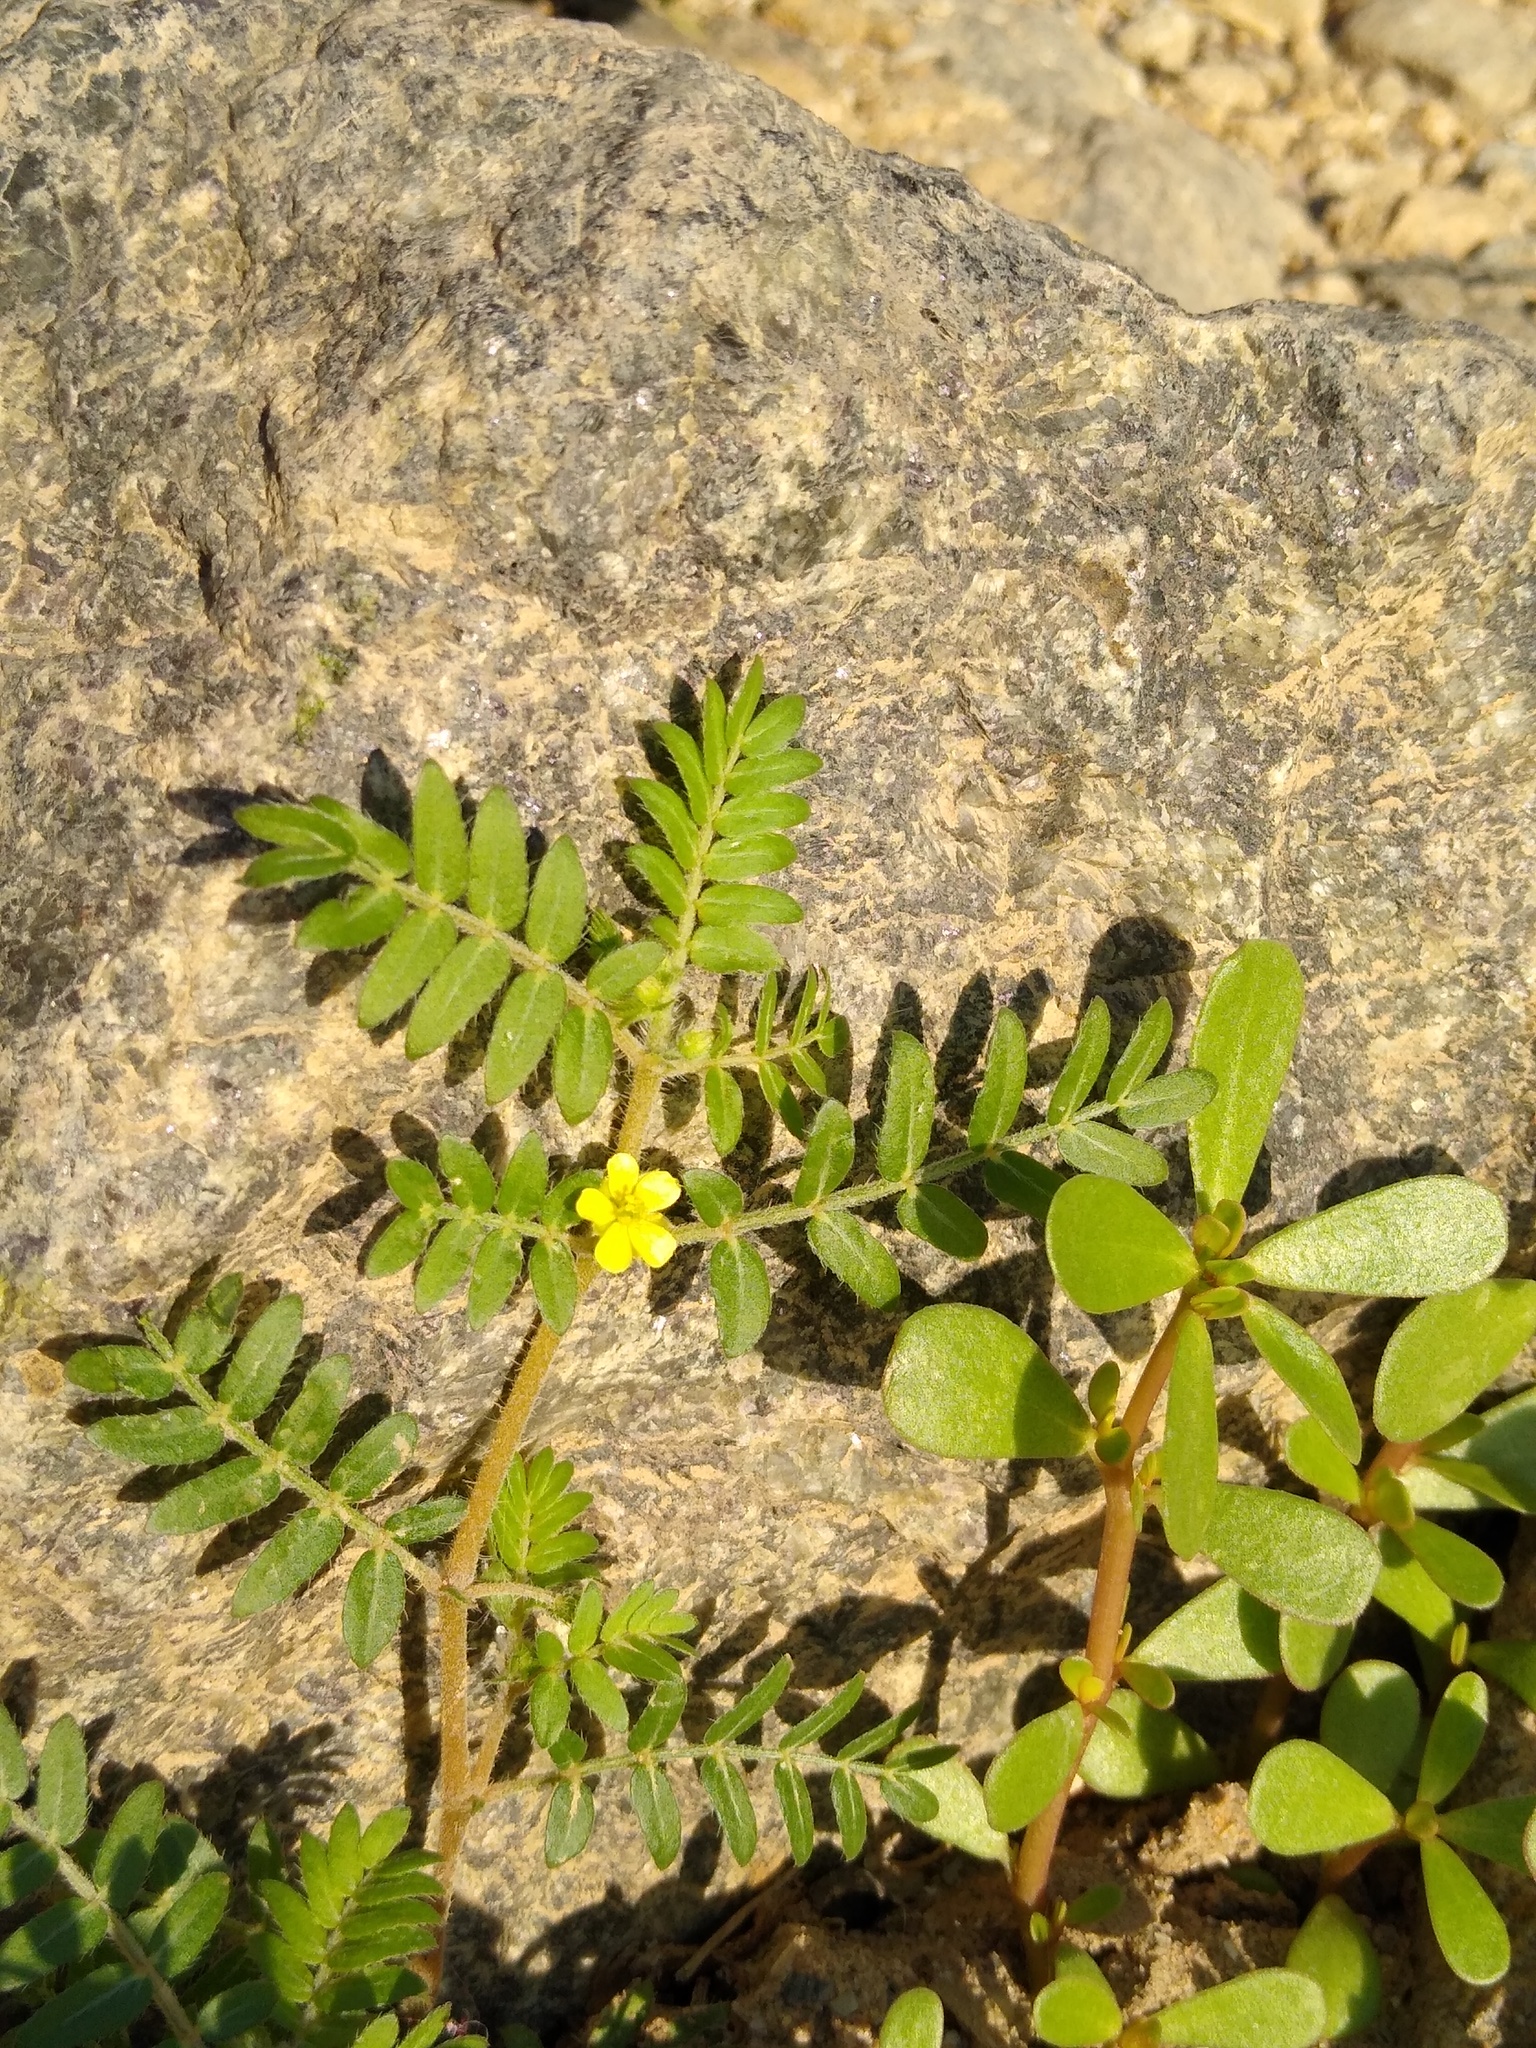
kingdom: Plantae
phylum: Tracheophyta
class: Magnoliopsida
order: Zygophyllales
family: Zygophyllaceae
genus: Tribulus
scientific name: Tribulus terrestris
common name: Puncturevine
